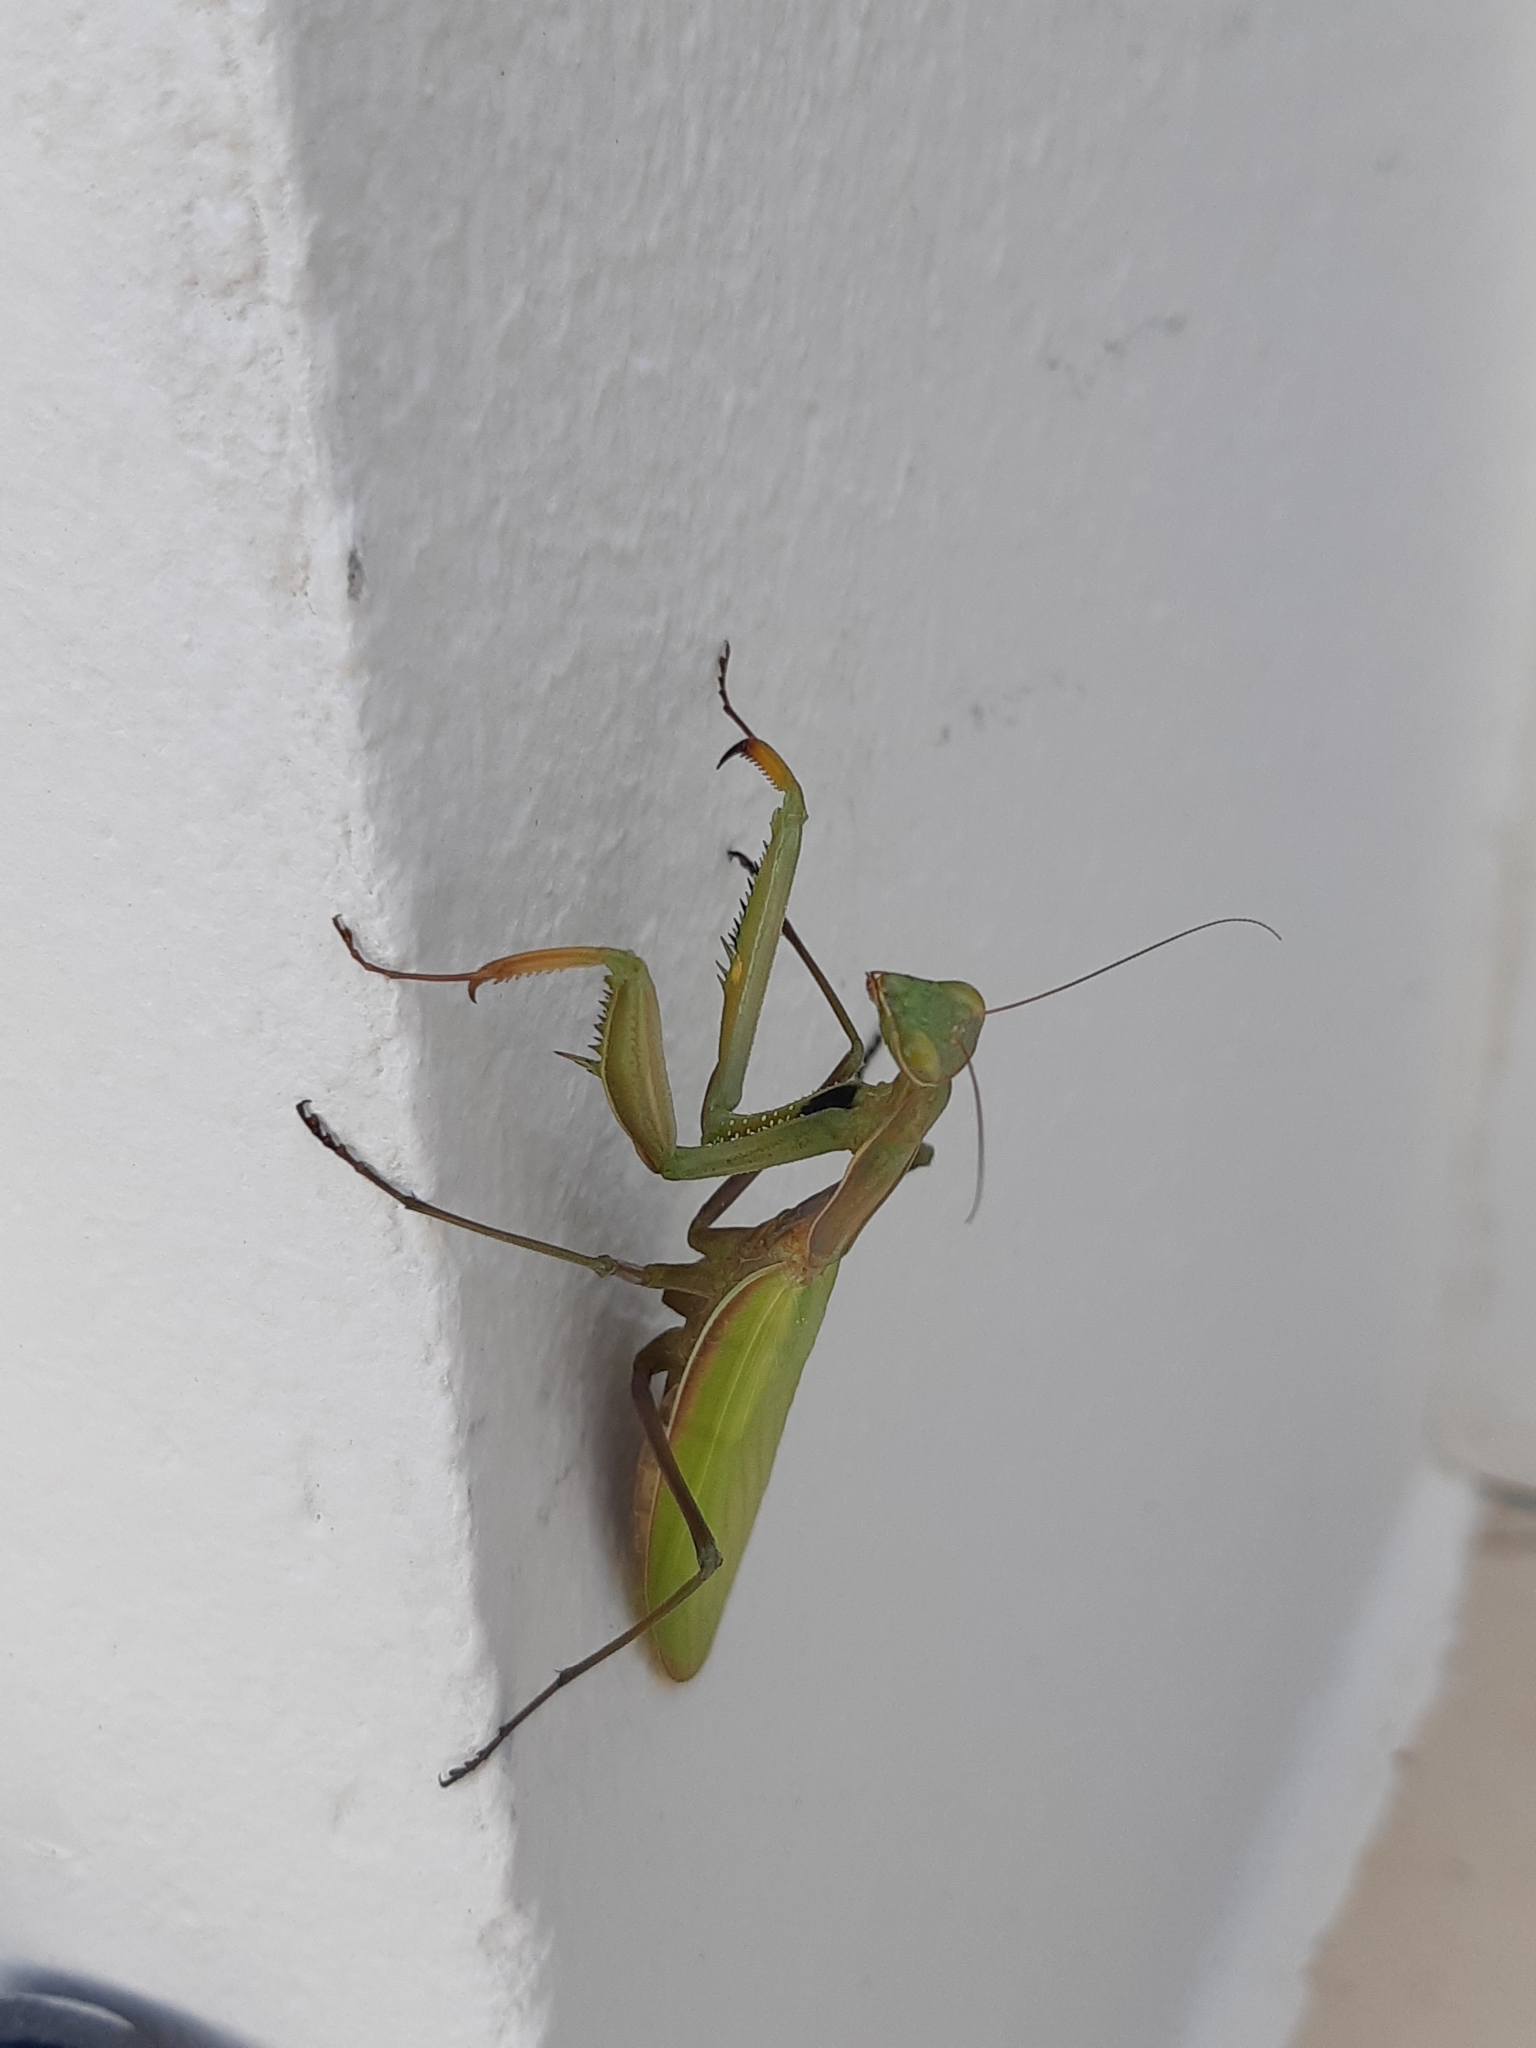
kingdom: Animalia
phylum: Arthropoda
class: Insecta
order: Mantodea
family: Mantidae
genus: Mantis
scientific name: Mantis religiosa
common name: Praying mantis
